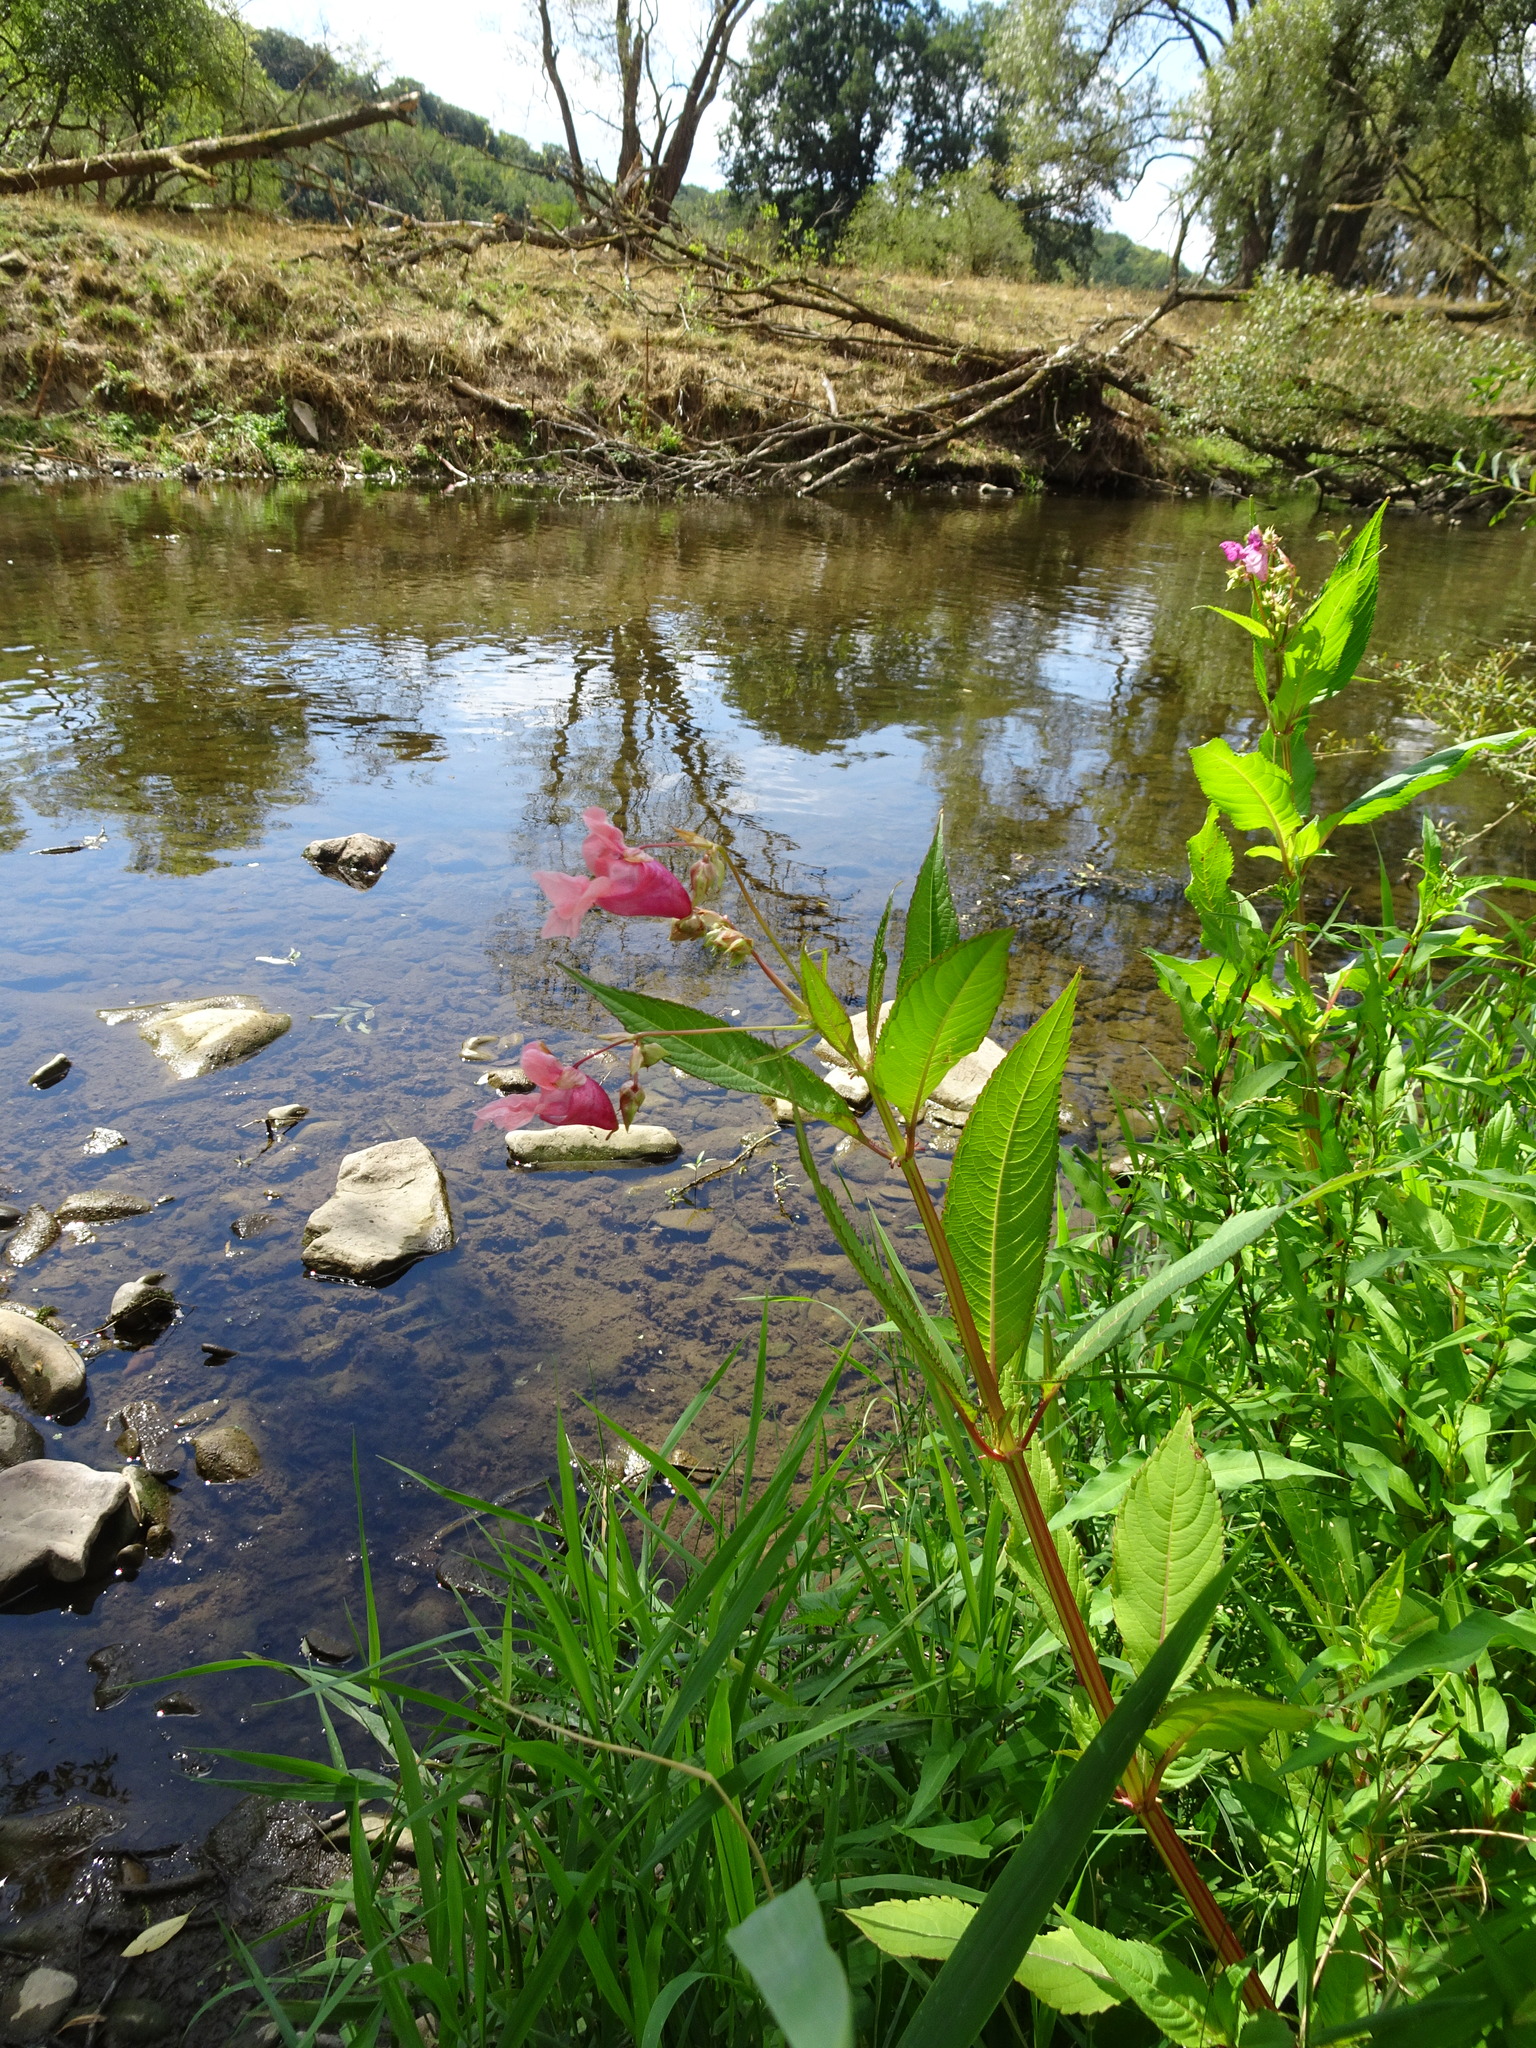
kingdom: Plantae
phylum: Tracheophyta
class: Magnoliopsida
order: Ericales
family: Balsaminaceae
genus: Impatiens
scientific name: Impatiens glandulifera
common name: Himalayan balsam
